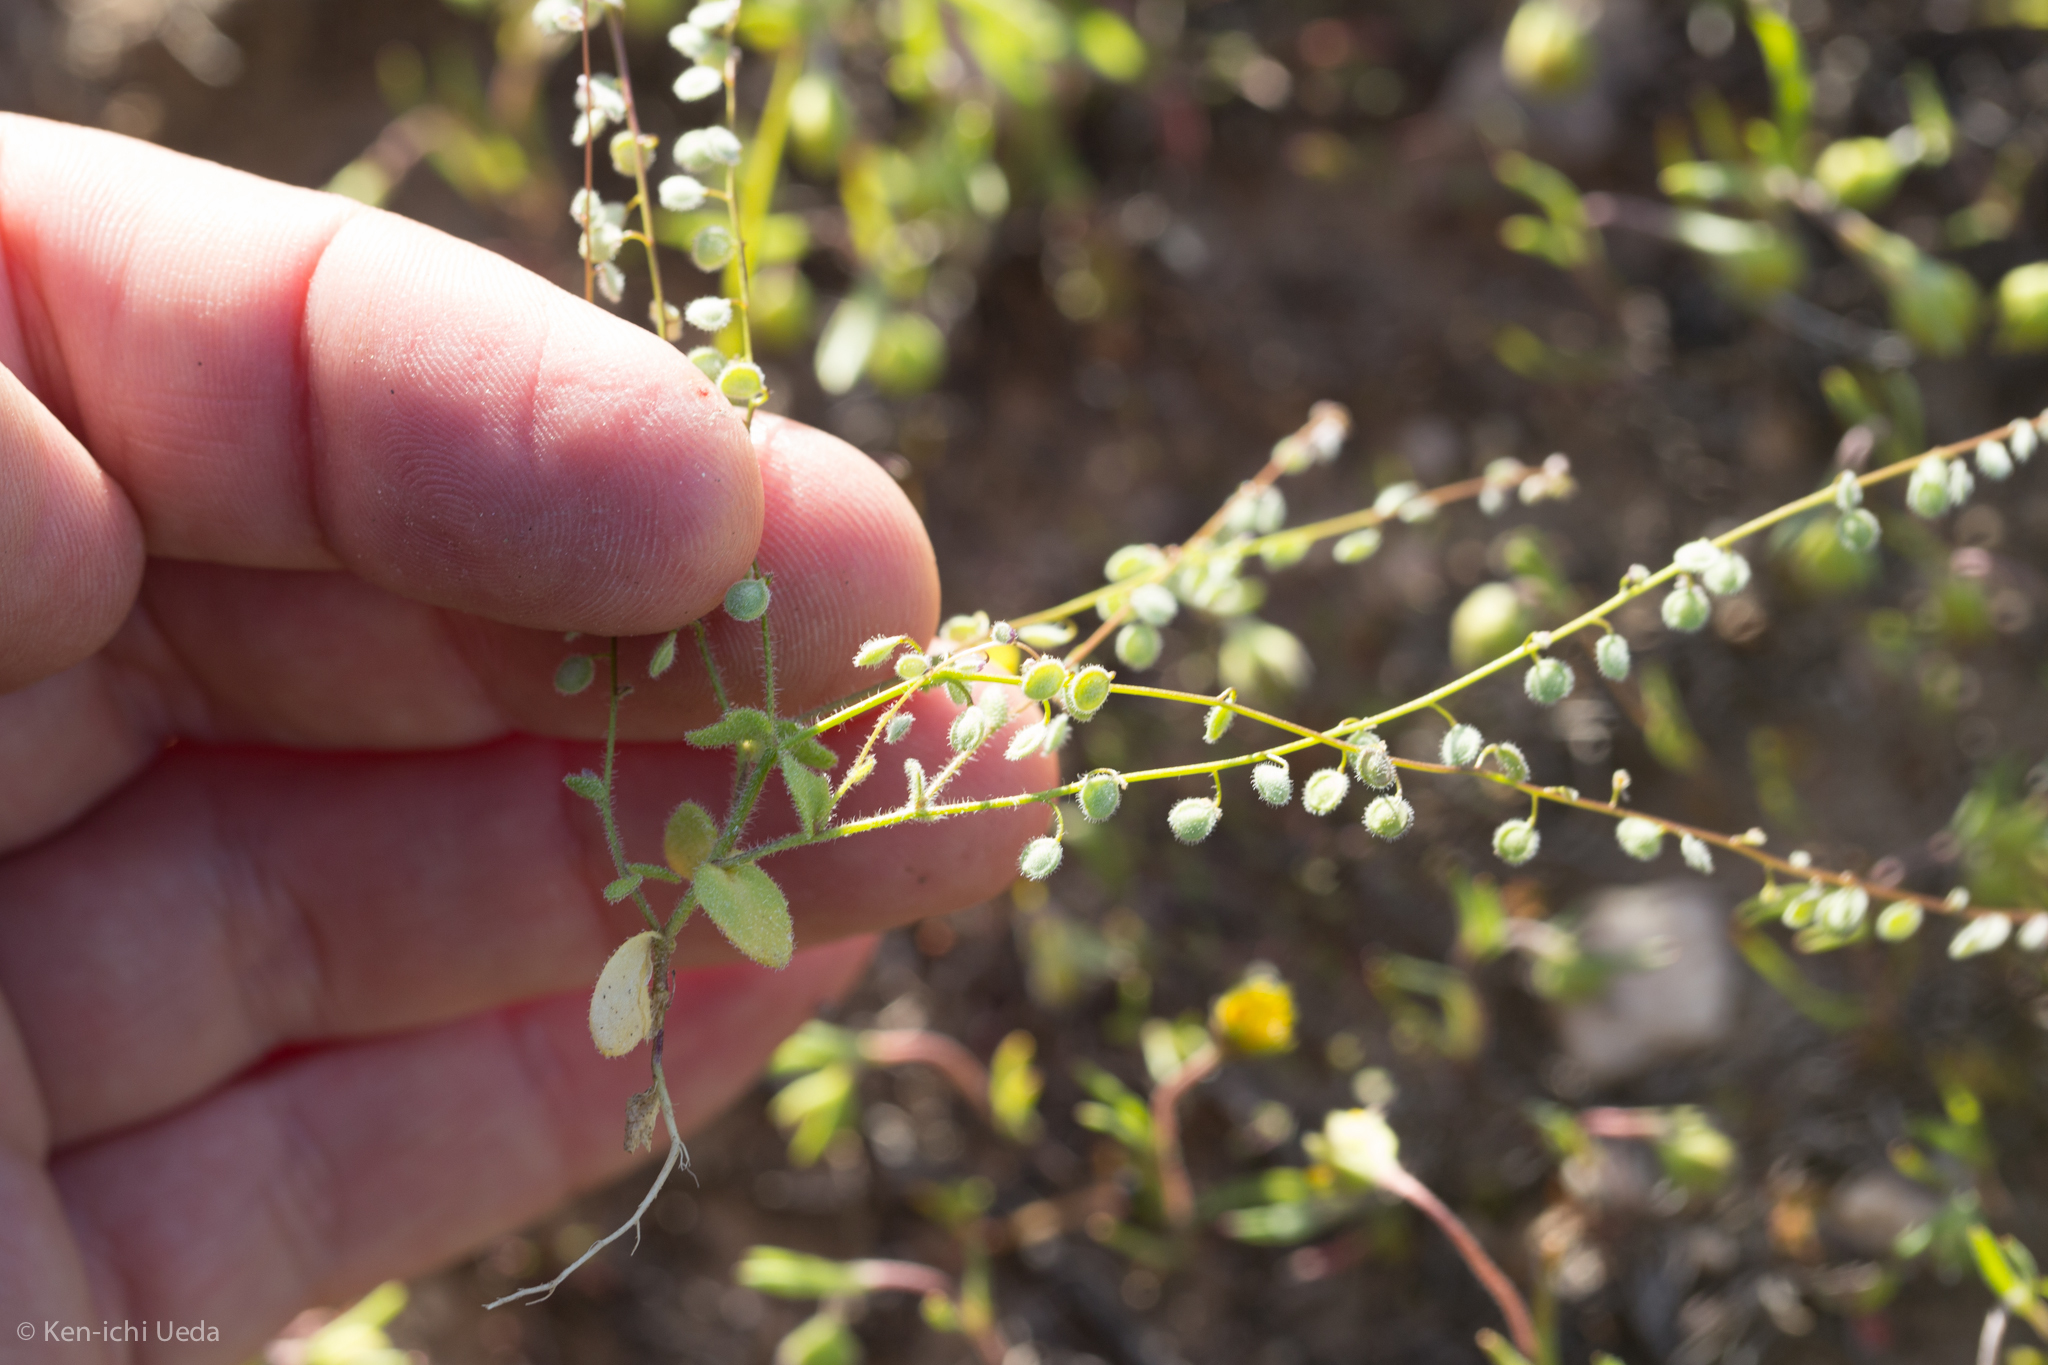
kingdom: Plantae
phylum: Tracheophyta
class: Magnoliopsida
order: Brassicales
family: Brassicaceae
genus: Athysanus
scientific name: Athysanus pusillus
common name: Common sandweed
